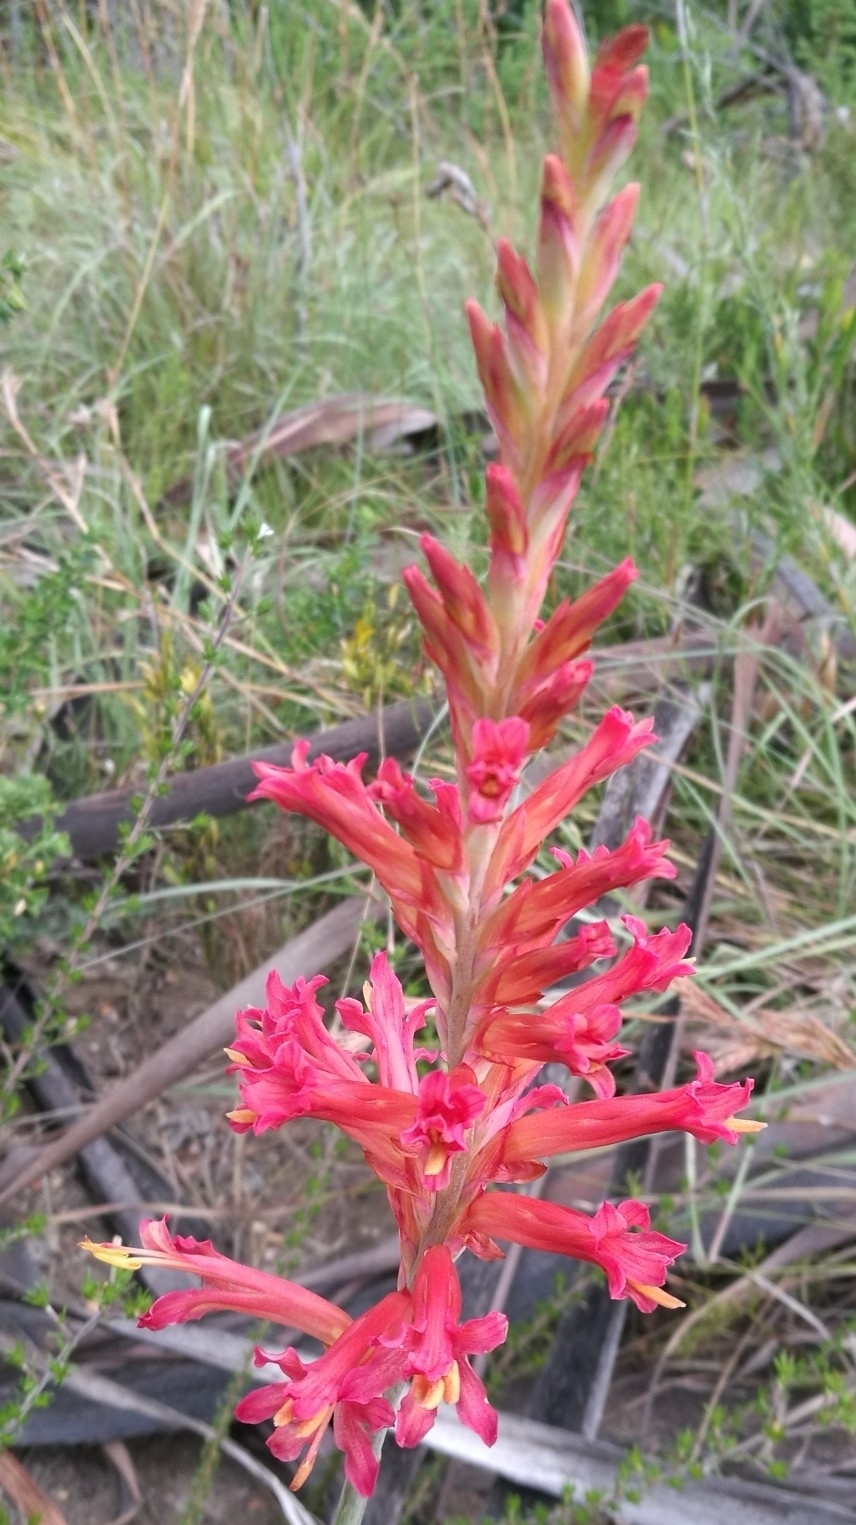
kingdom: Plantae
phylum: Tracheophyta
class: Liliopsida
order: Asparagales
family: Iridaceae
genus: Tritoniopsis
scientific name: Tritoniopsis antholyza
